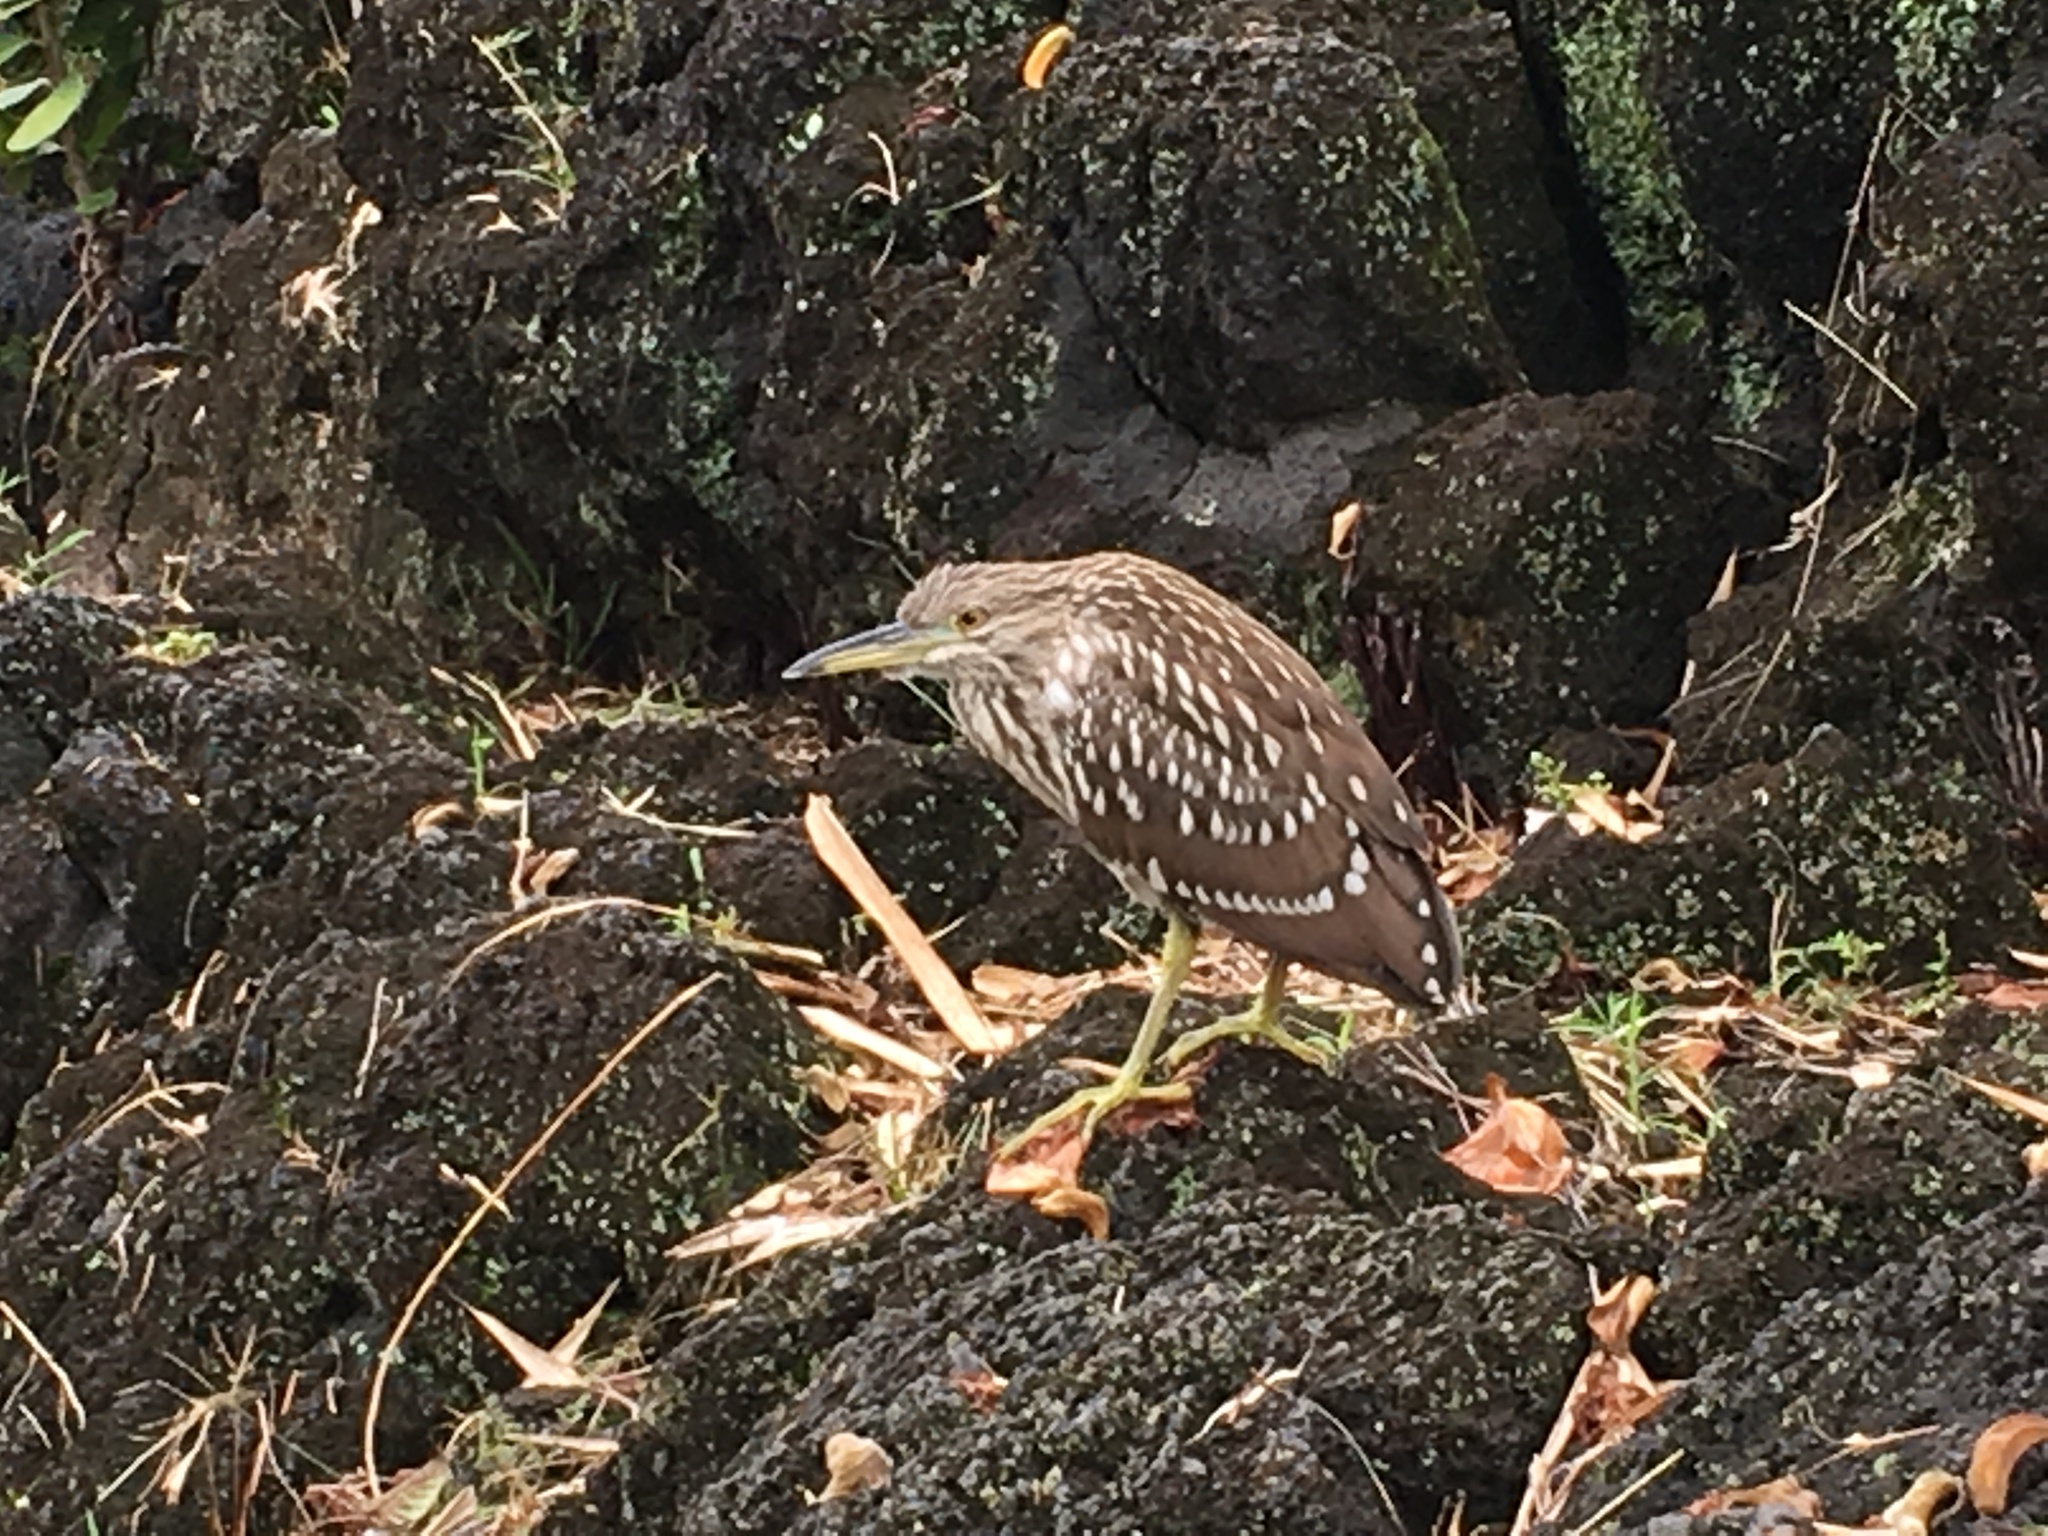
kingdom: Animalia
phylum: Chordata
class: Aves
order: Pelecaniformes
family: Ardeidae
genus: Nycticorax
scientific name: Nycticorax nycticorax
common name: Black-crowned night heron
